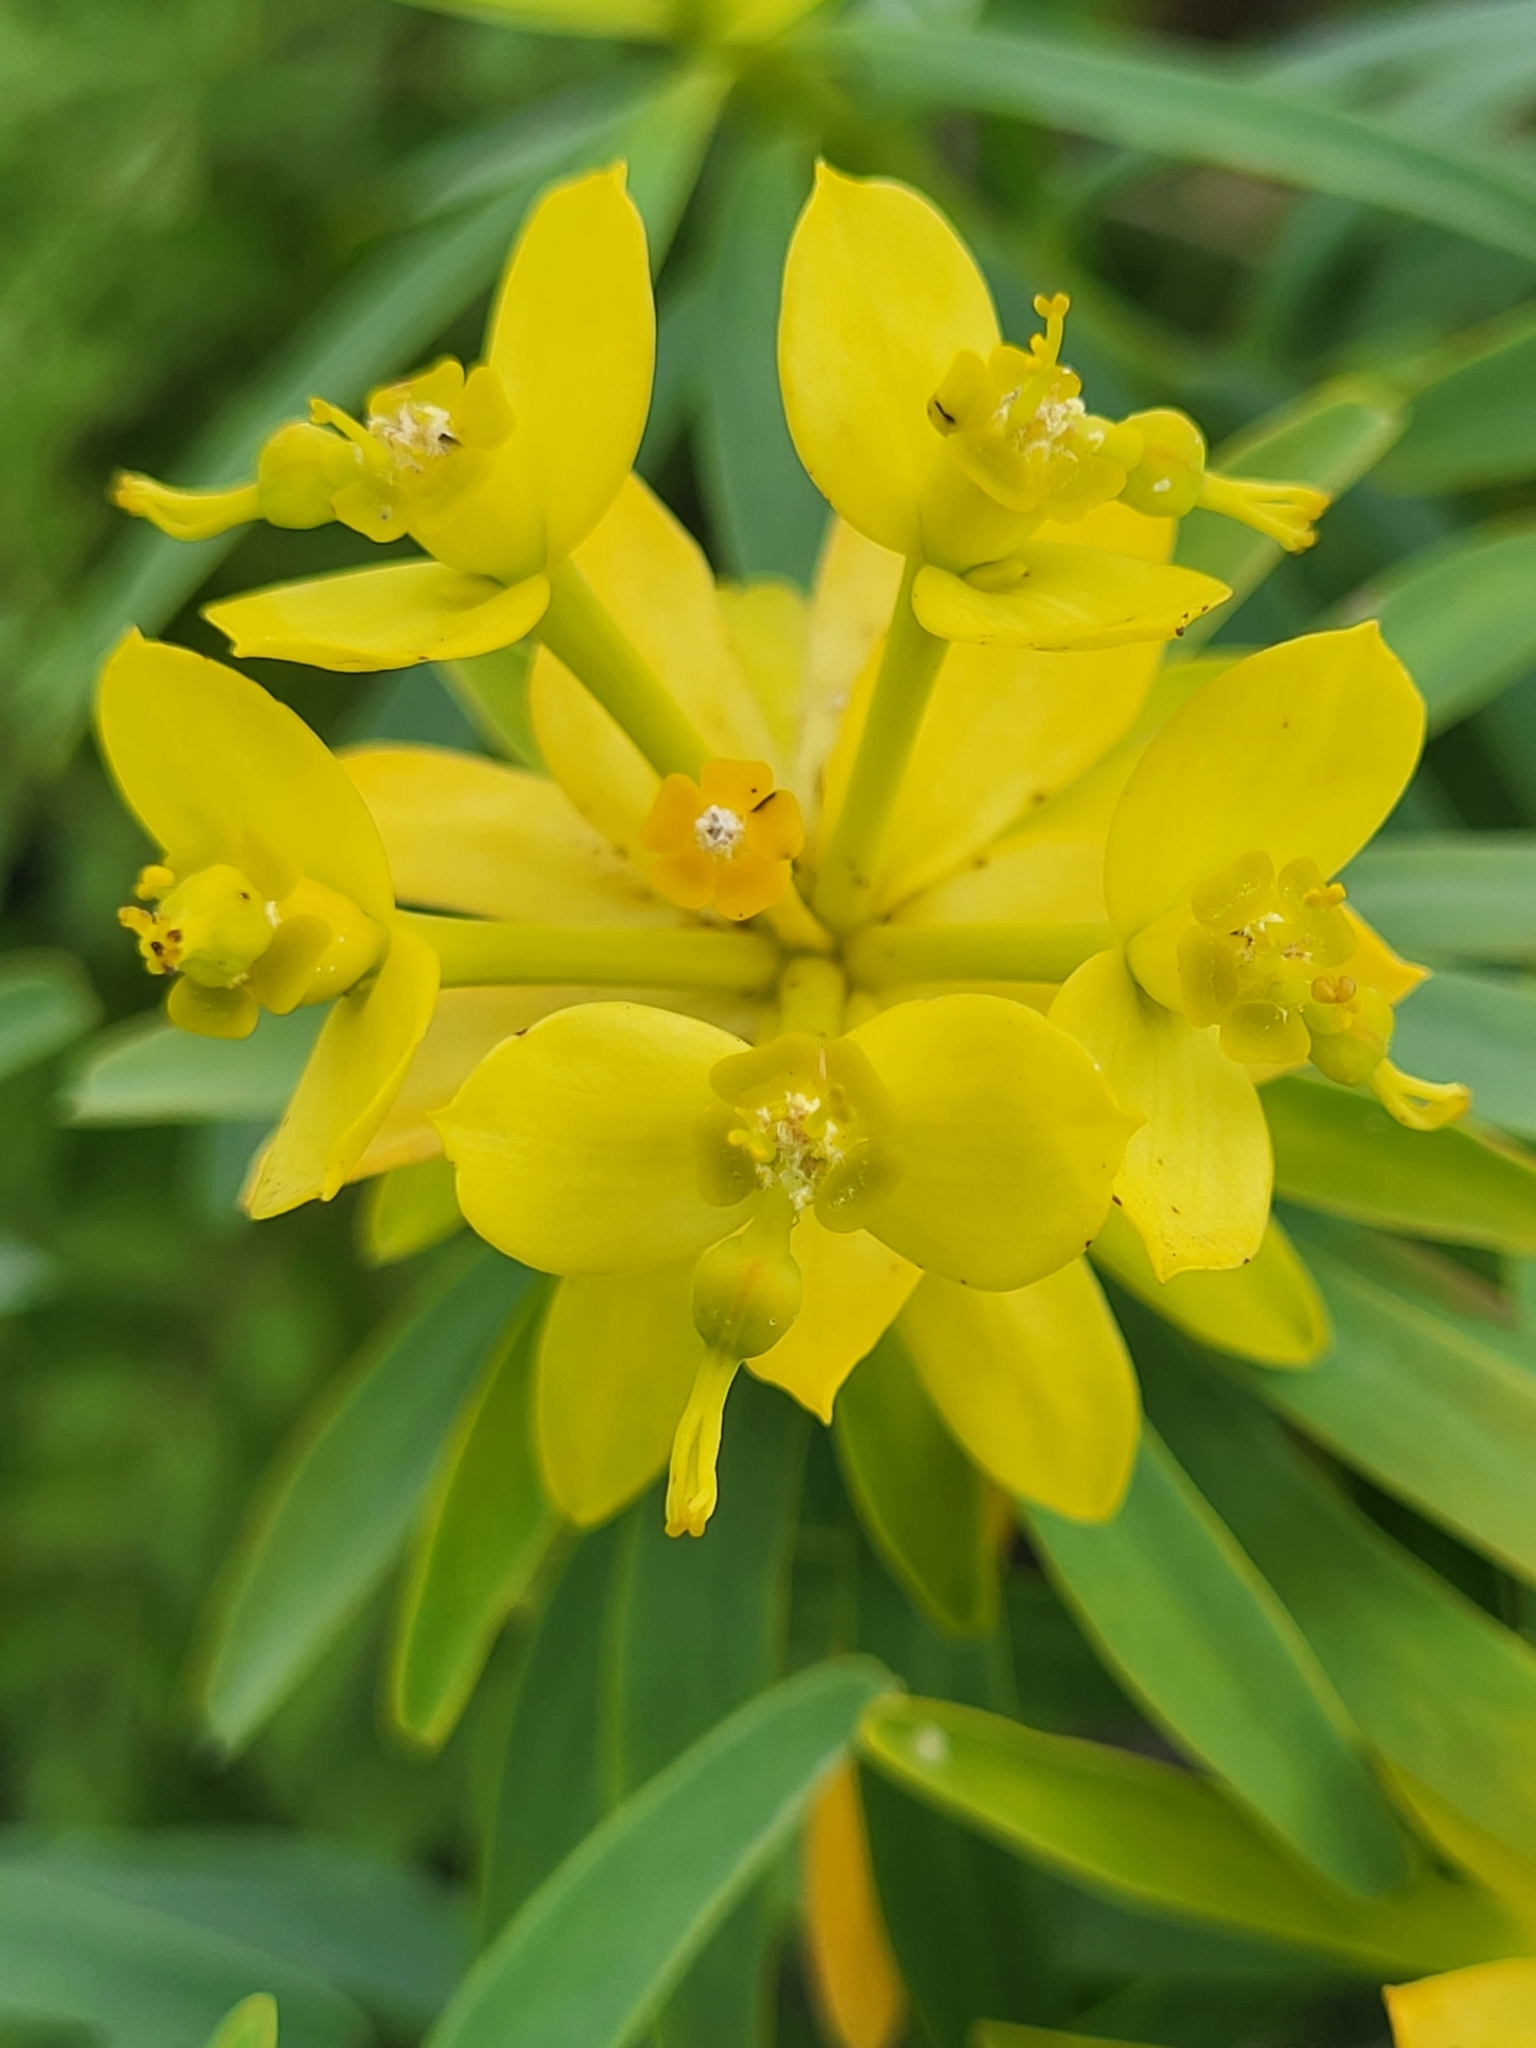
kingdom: Plantae
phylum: Tracheophyta
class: Magnoliopsida
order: Malpighiales
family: Euphorbiaceae
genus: Euphorbia
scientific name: Euphorbia lamarckii
